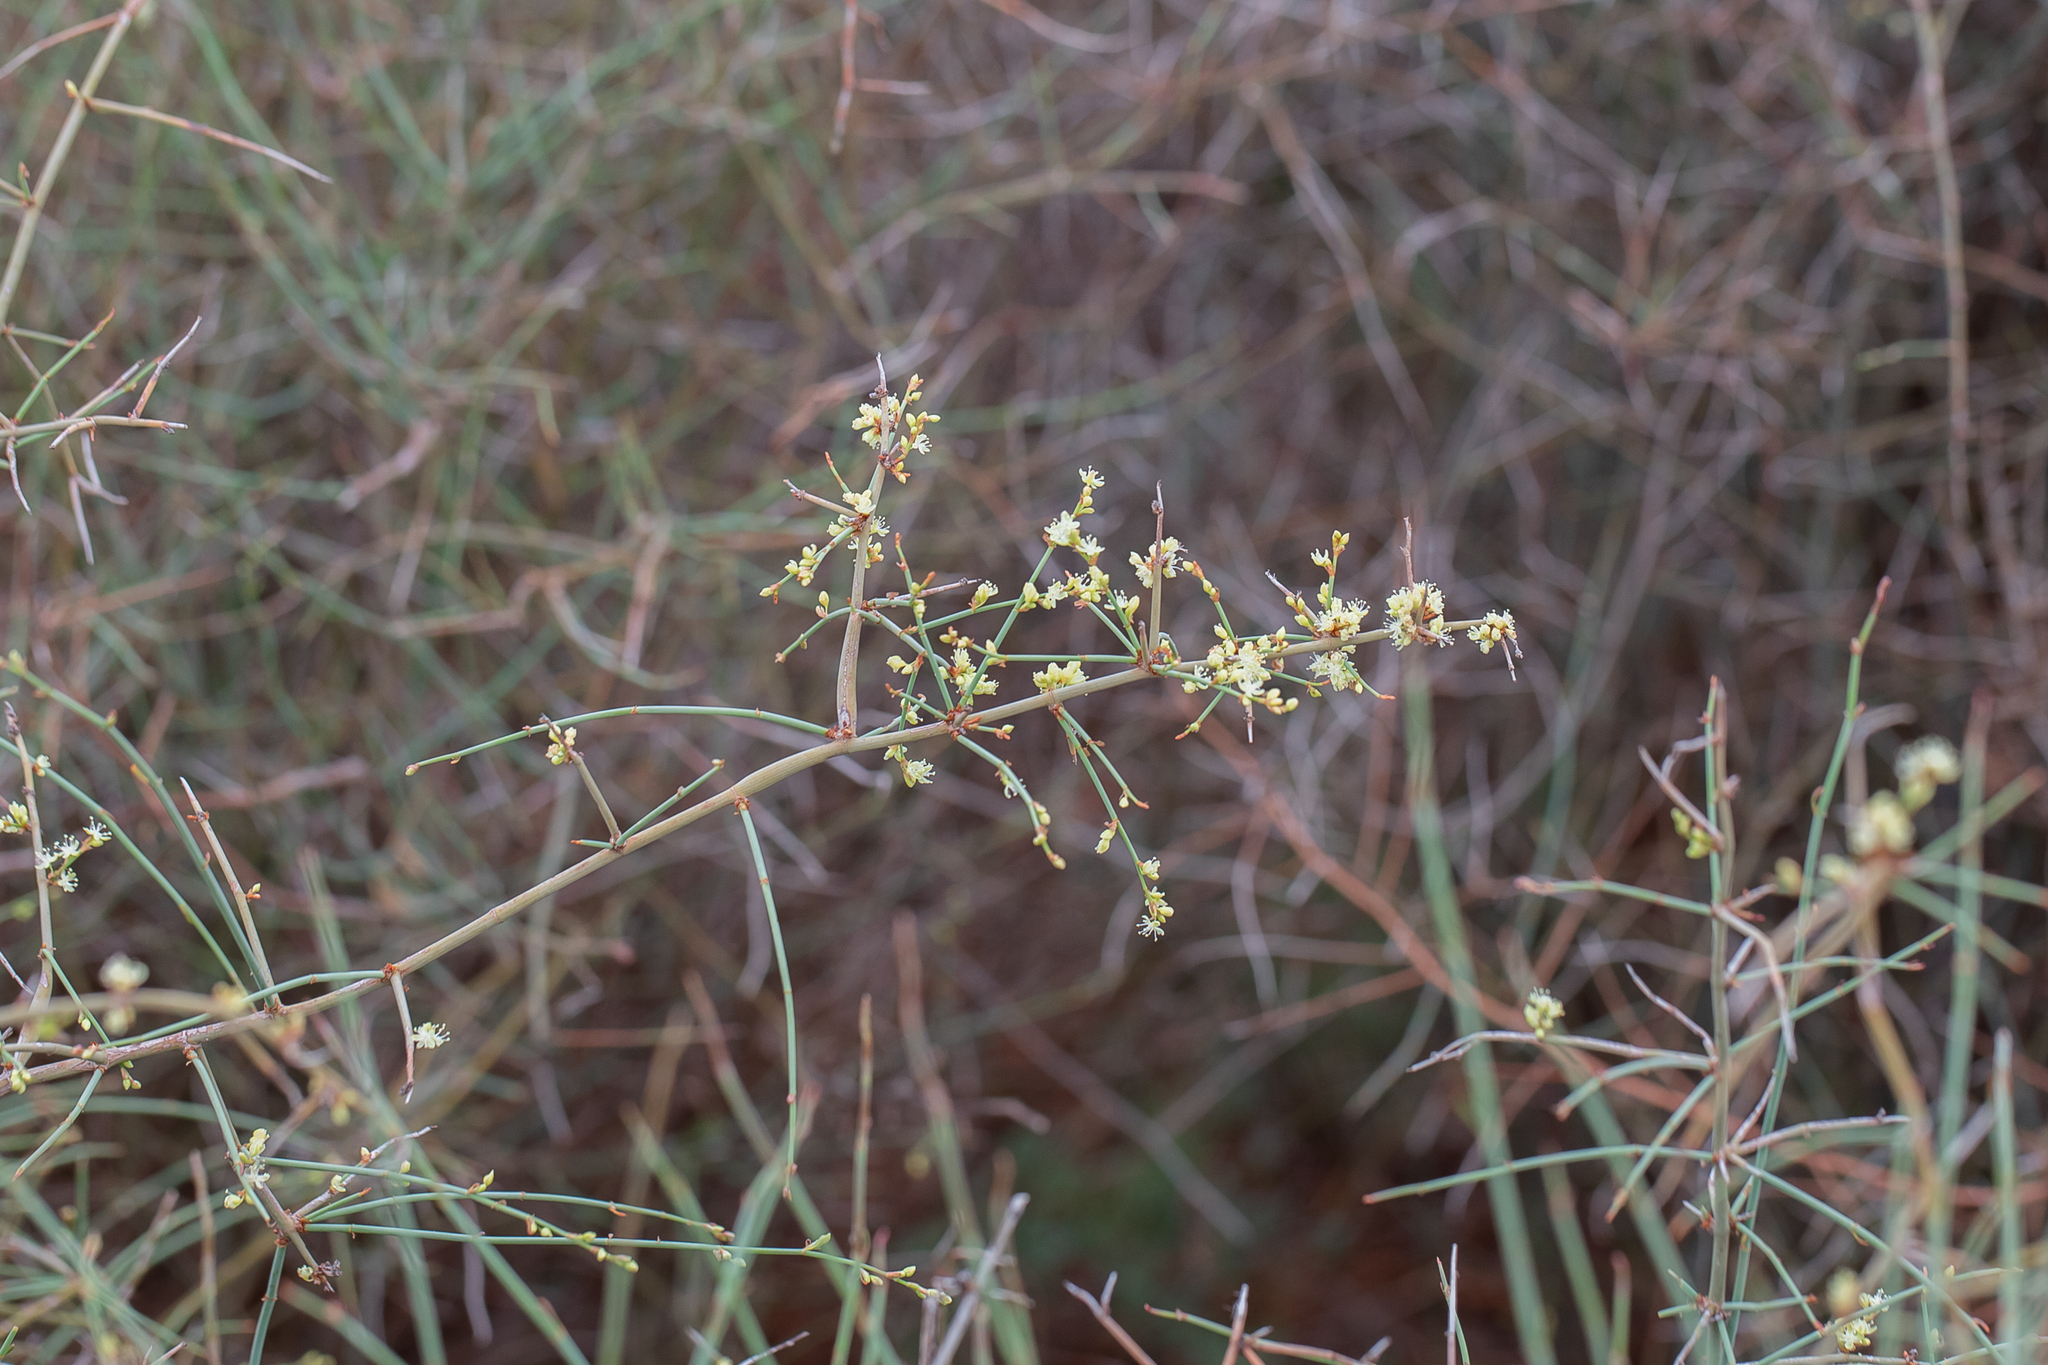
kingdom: Plantae
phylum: Tracheophyta
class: Magnoliopsida
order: Caryophyllales
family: Polygonaceae
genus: Duma
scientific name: Duma florulenta
